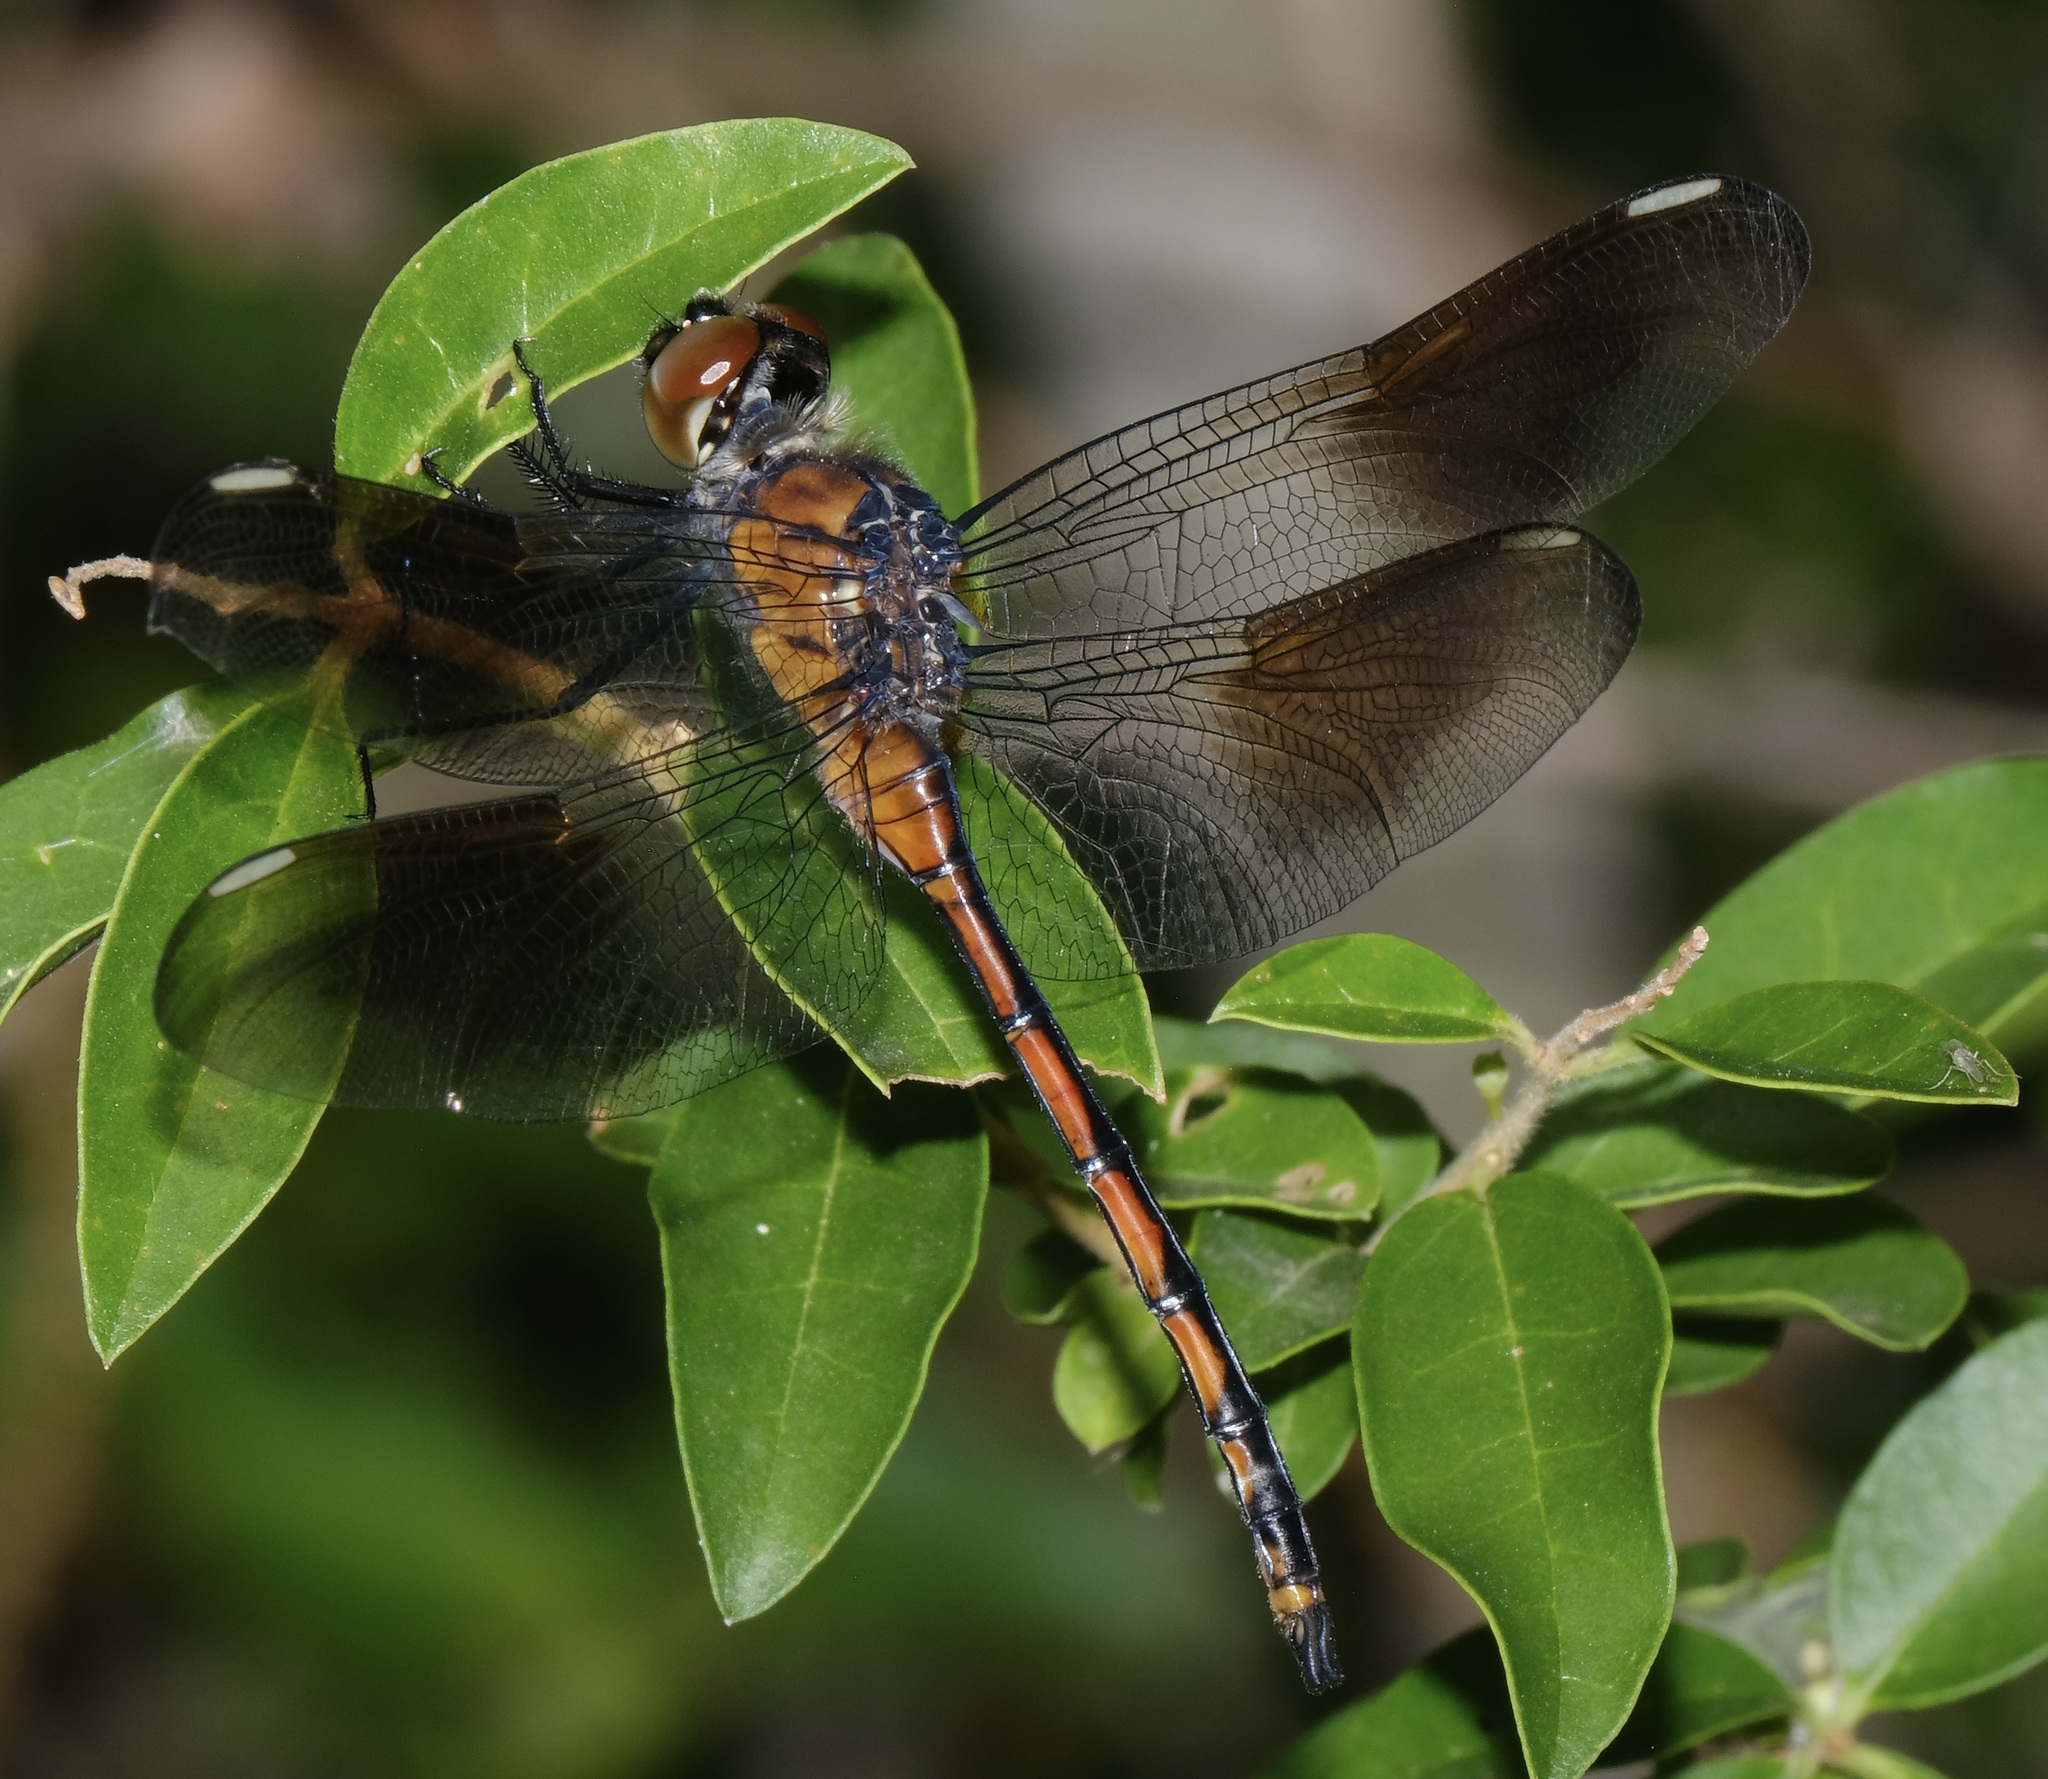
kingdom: Animalia
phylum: Arthropoda
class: Insecta
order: Odonata
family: Libellulidae
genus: Brachymesia
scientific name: Brachymesia gravida
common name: Four-spotted pennant
